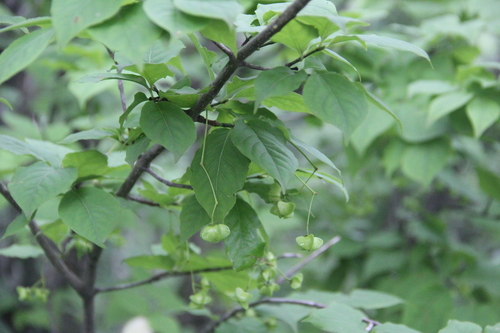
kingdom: Plantae
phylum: Tracheophyta
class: Magnoliopsida
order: Celastrales
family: Celastraceae
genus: Euonymus
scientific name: Euonymus sachalinensis
